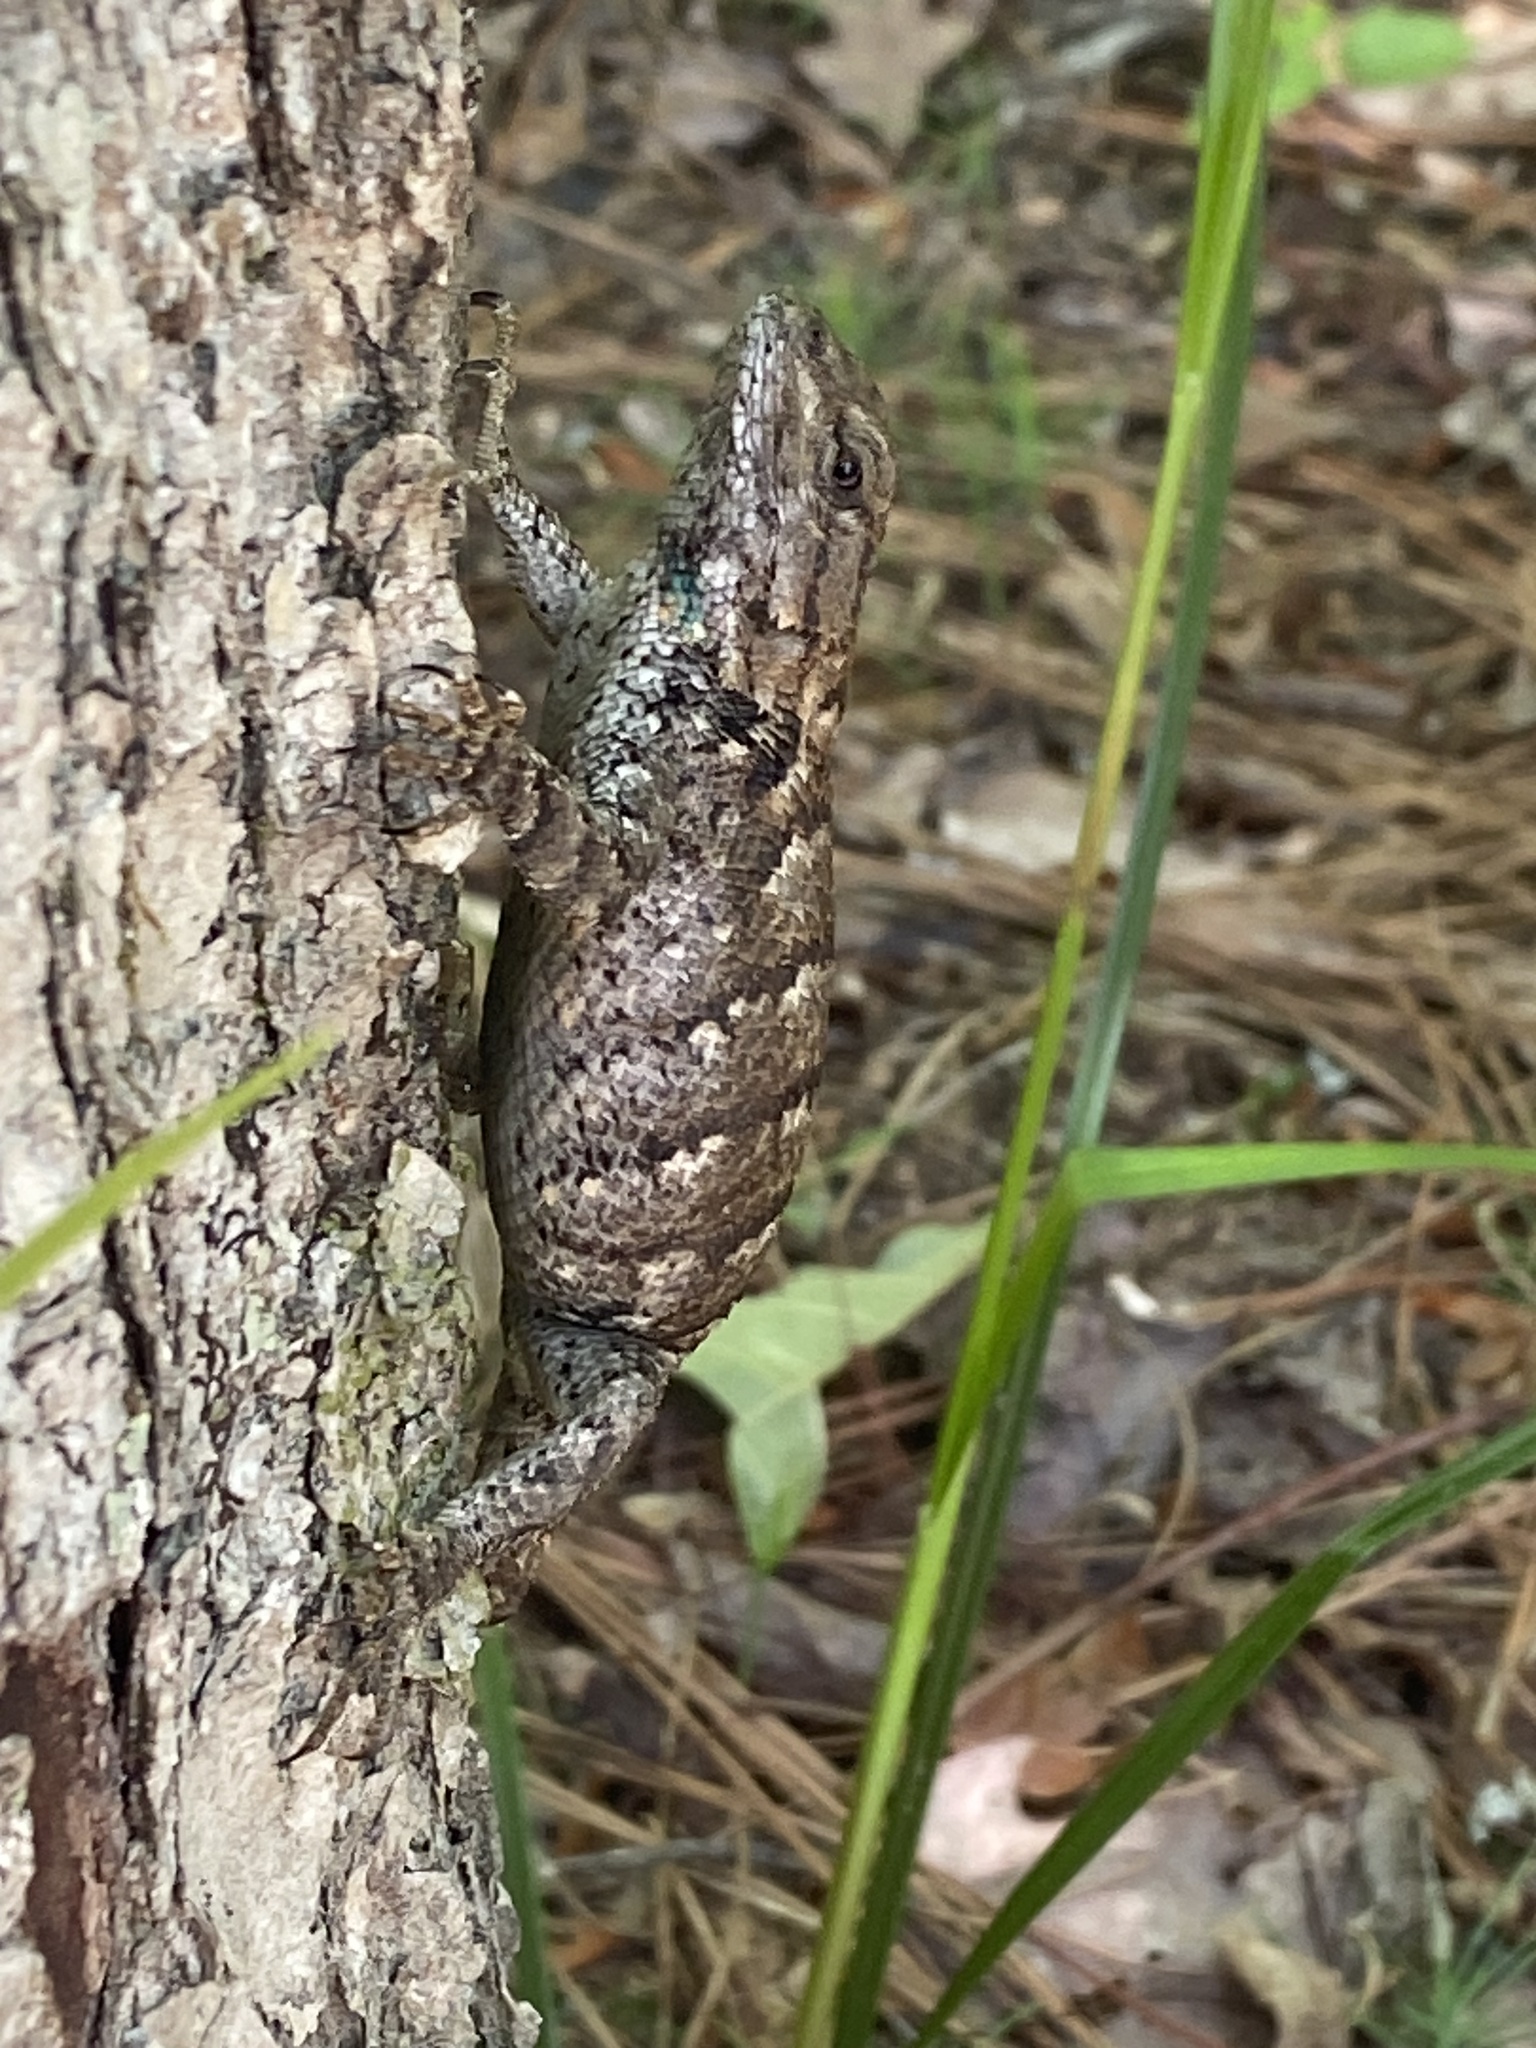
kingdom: Animalia
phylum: Chordata
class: Squamata
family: Phrynosomatidae
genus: Sceloporus
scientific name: Sceloporus undulatus
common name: Eastern fence lizard
